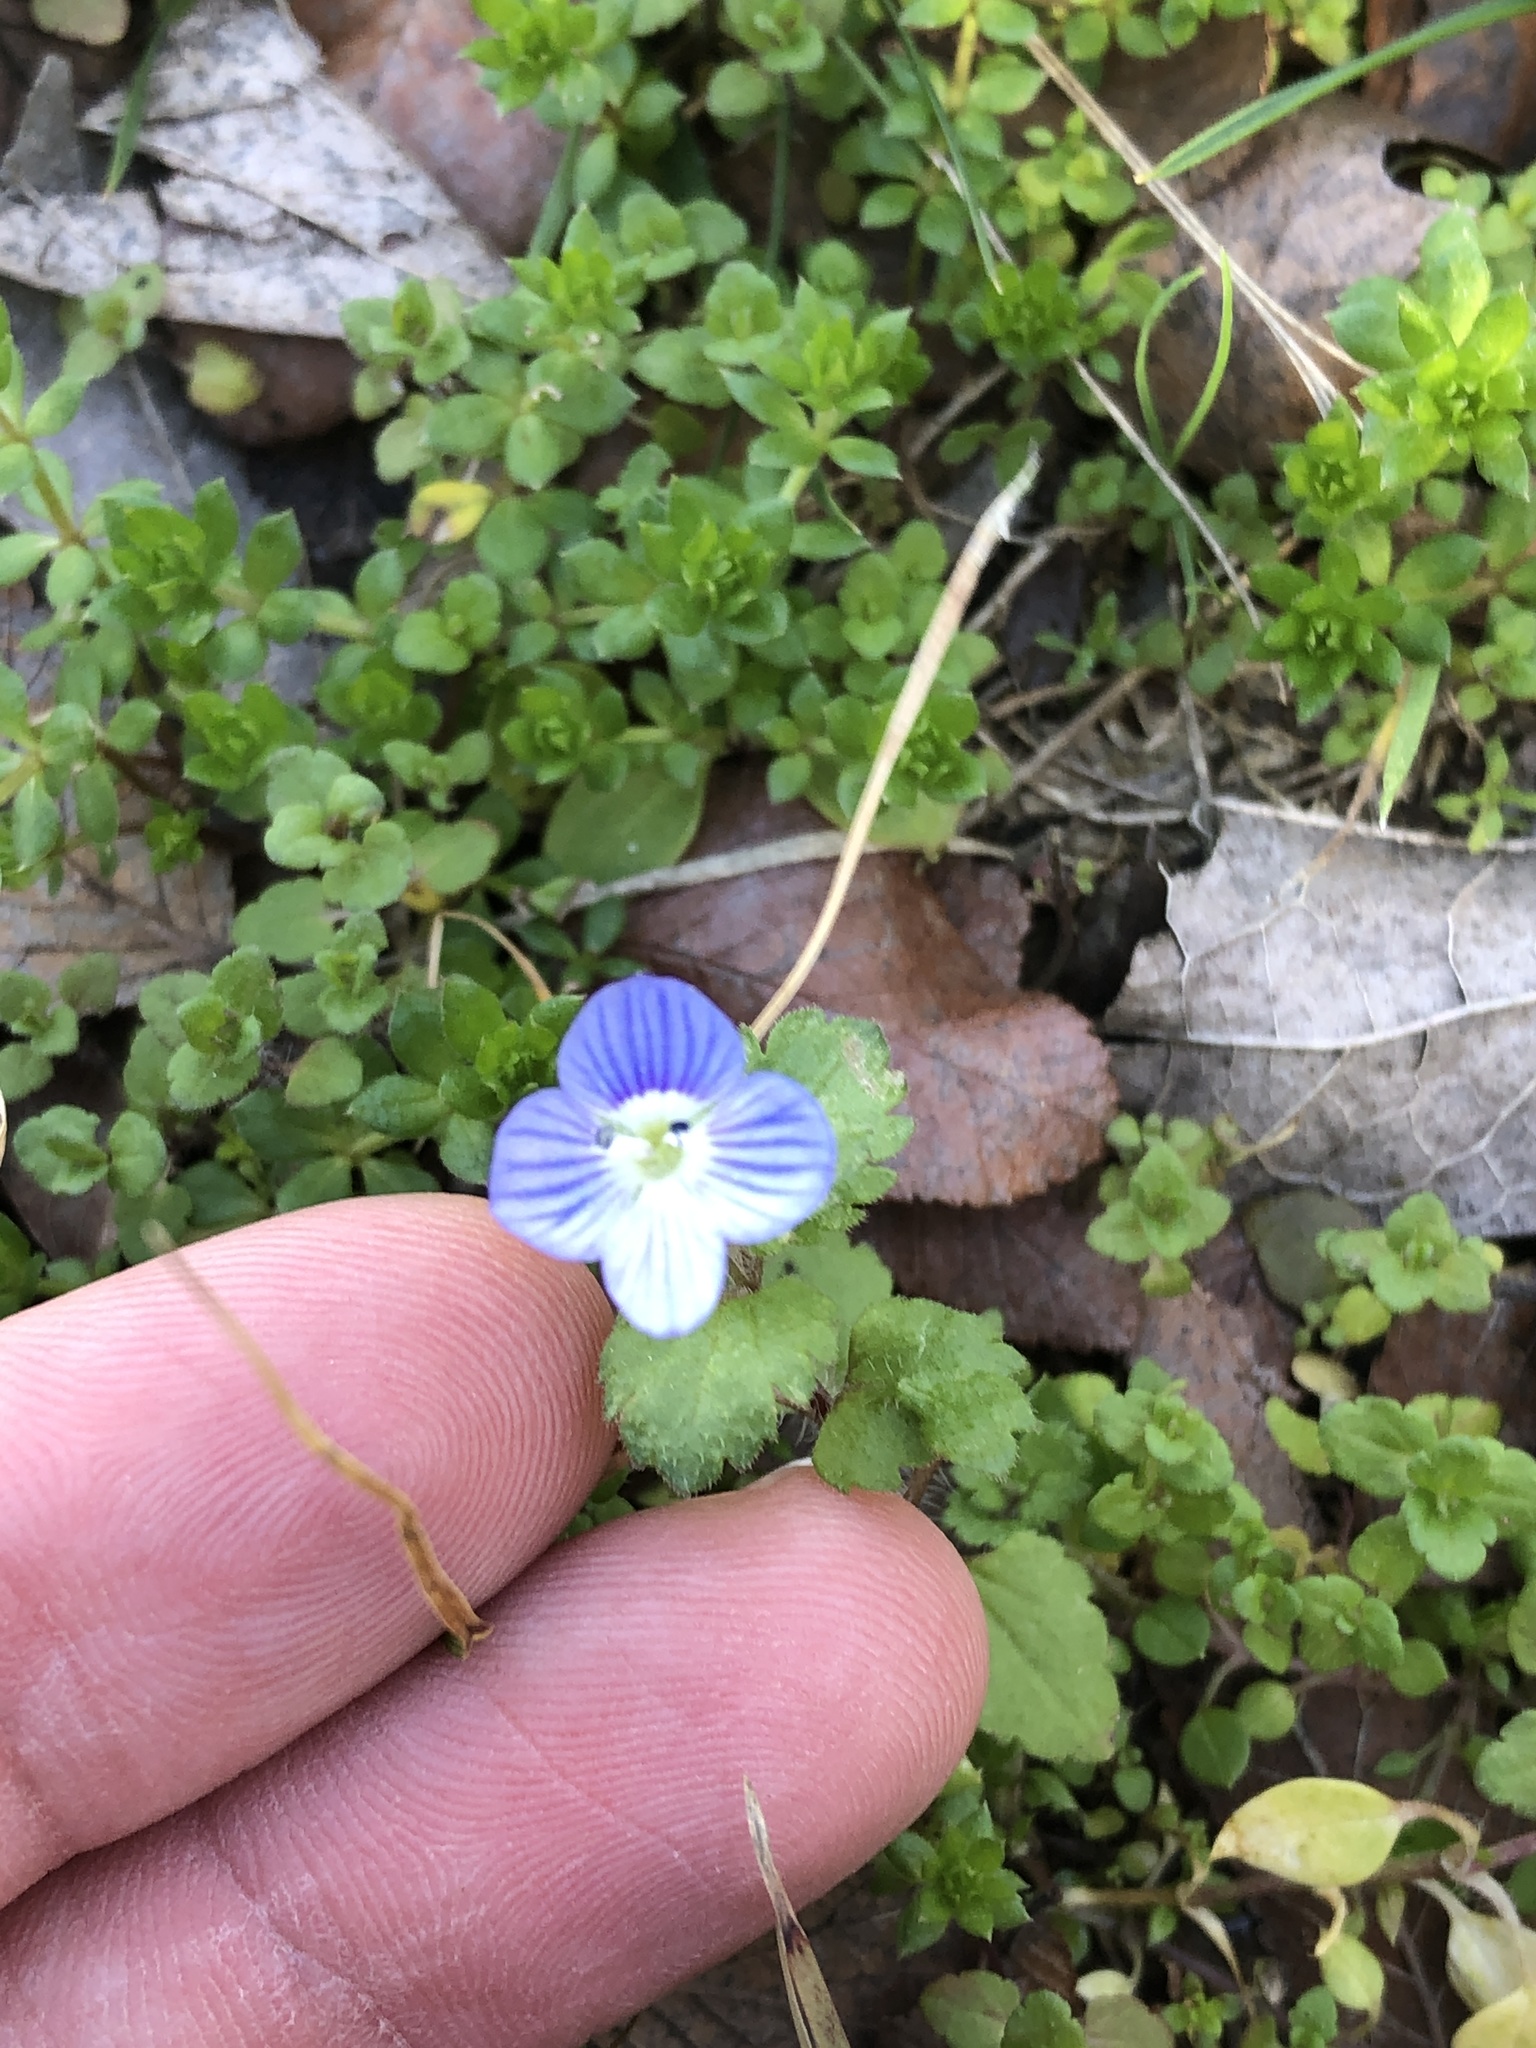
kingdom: Plantae
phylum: Tracheophyta
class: Magnoliopsida
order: Lamiales
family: Plantaginaceae
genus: Veronica
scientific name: Veronica persica
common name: Common field-speedwell
